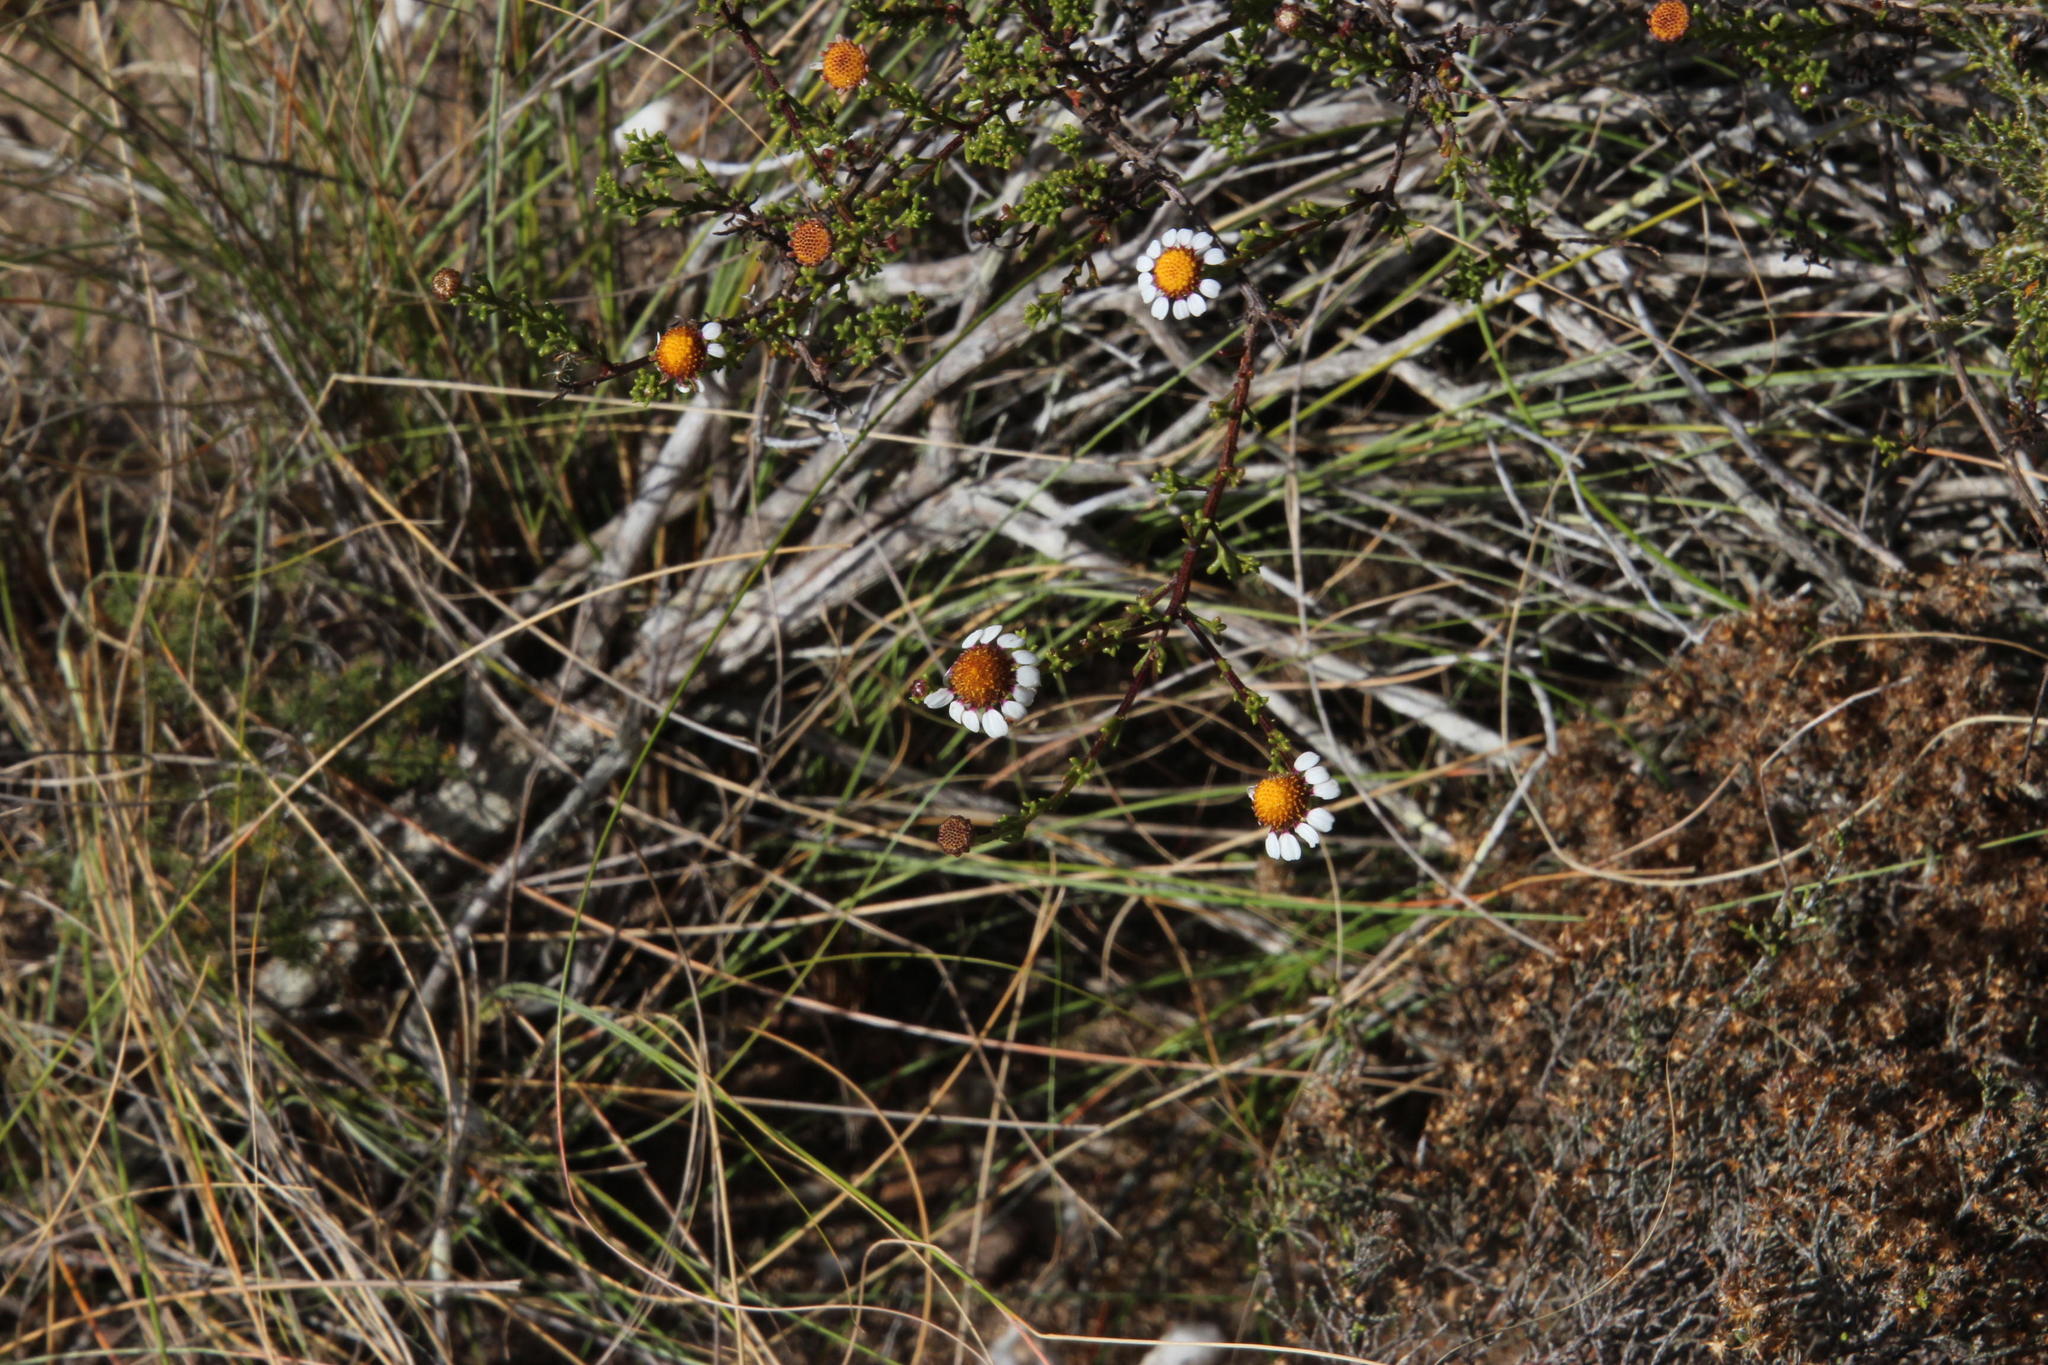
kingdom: Plantae
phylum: Tracheophyta
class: Magnoliopsida
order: Asterales
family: Asteraceae
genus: Cymbopappus
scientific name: Cymbopappus adenosolen
